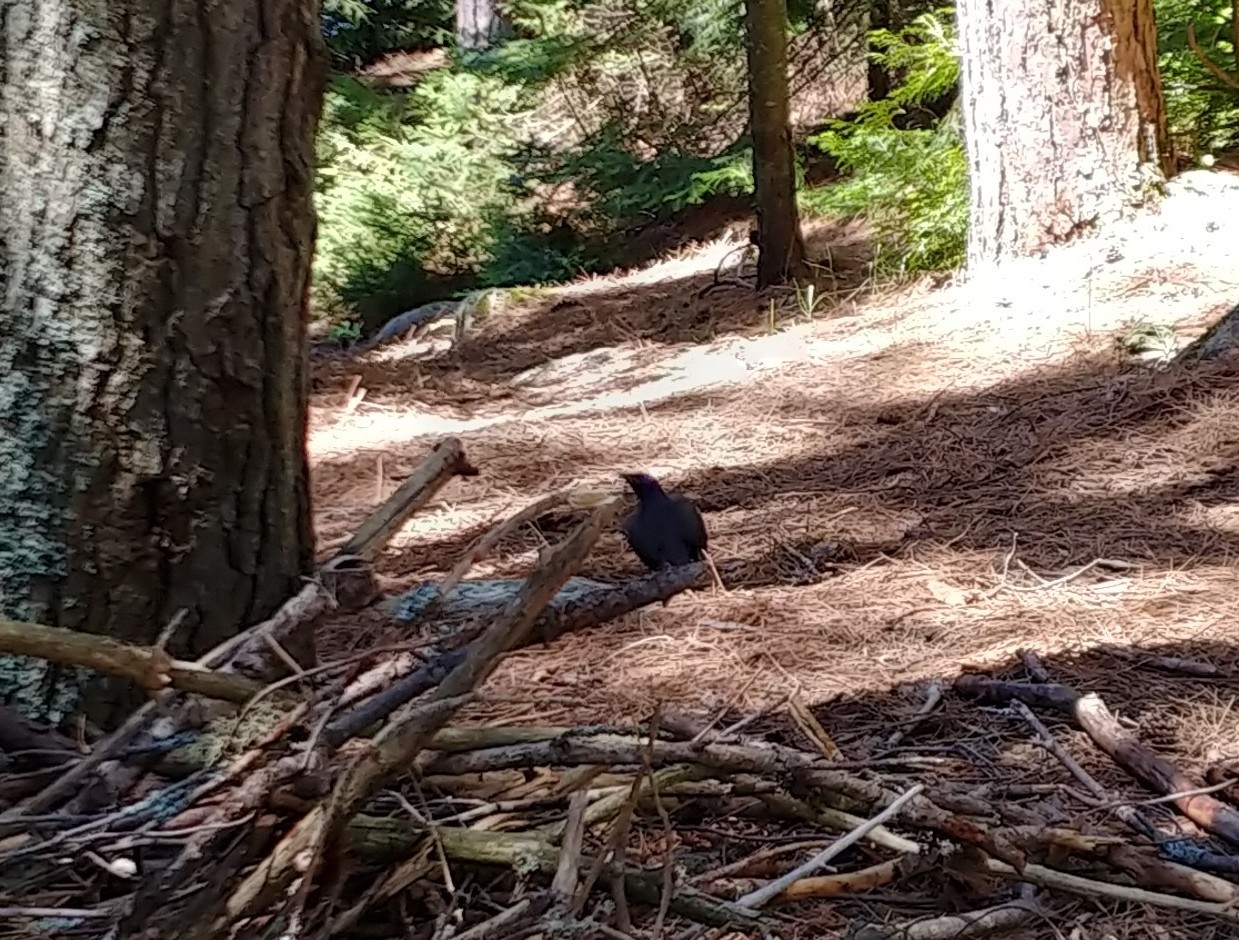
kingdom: Animalia
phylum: Chordata
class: Aves
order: Passeriformes
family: Icteridae
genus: Quiscalus
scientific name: Quiscalus quiscula
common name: Common grackle
